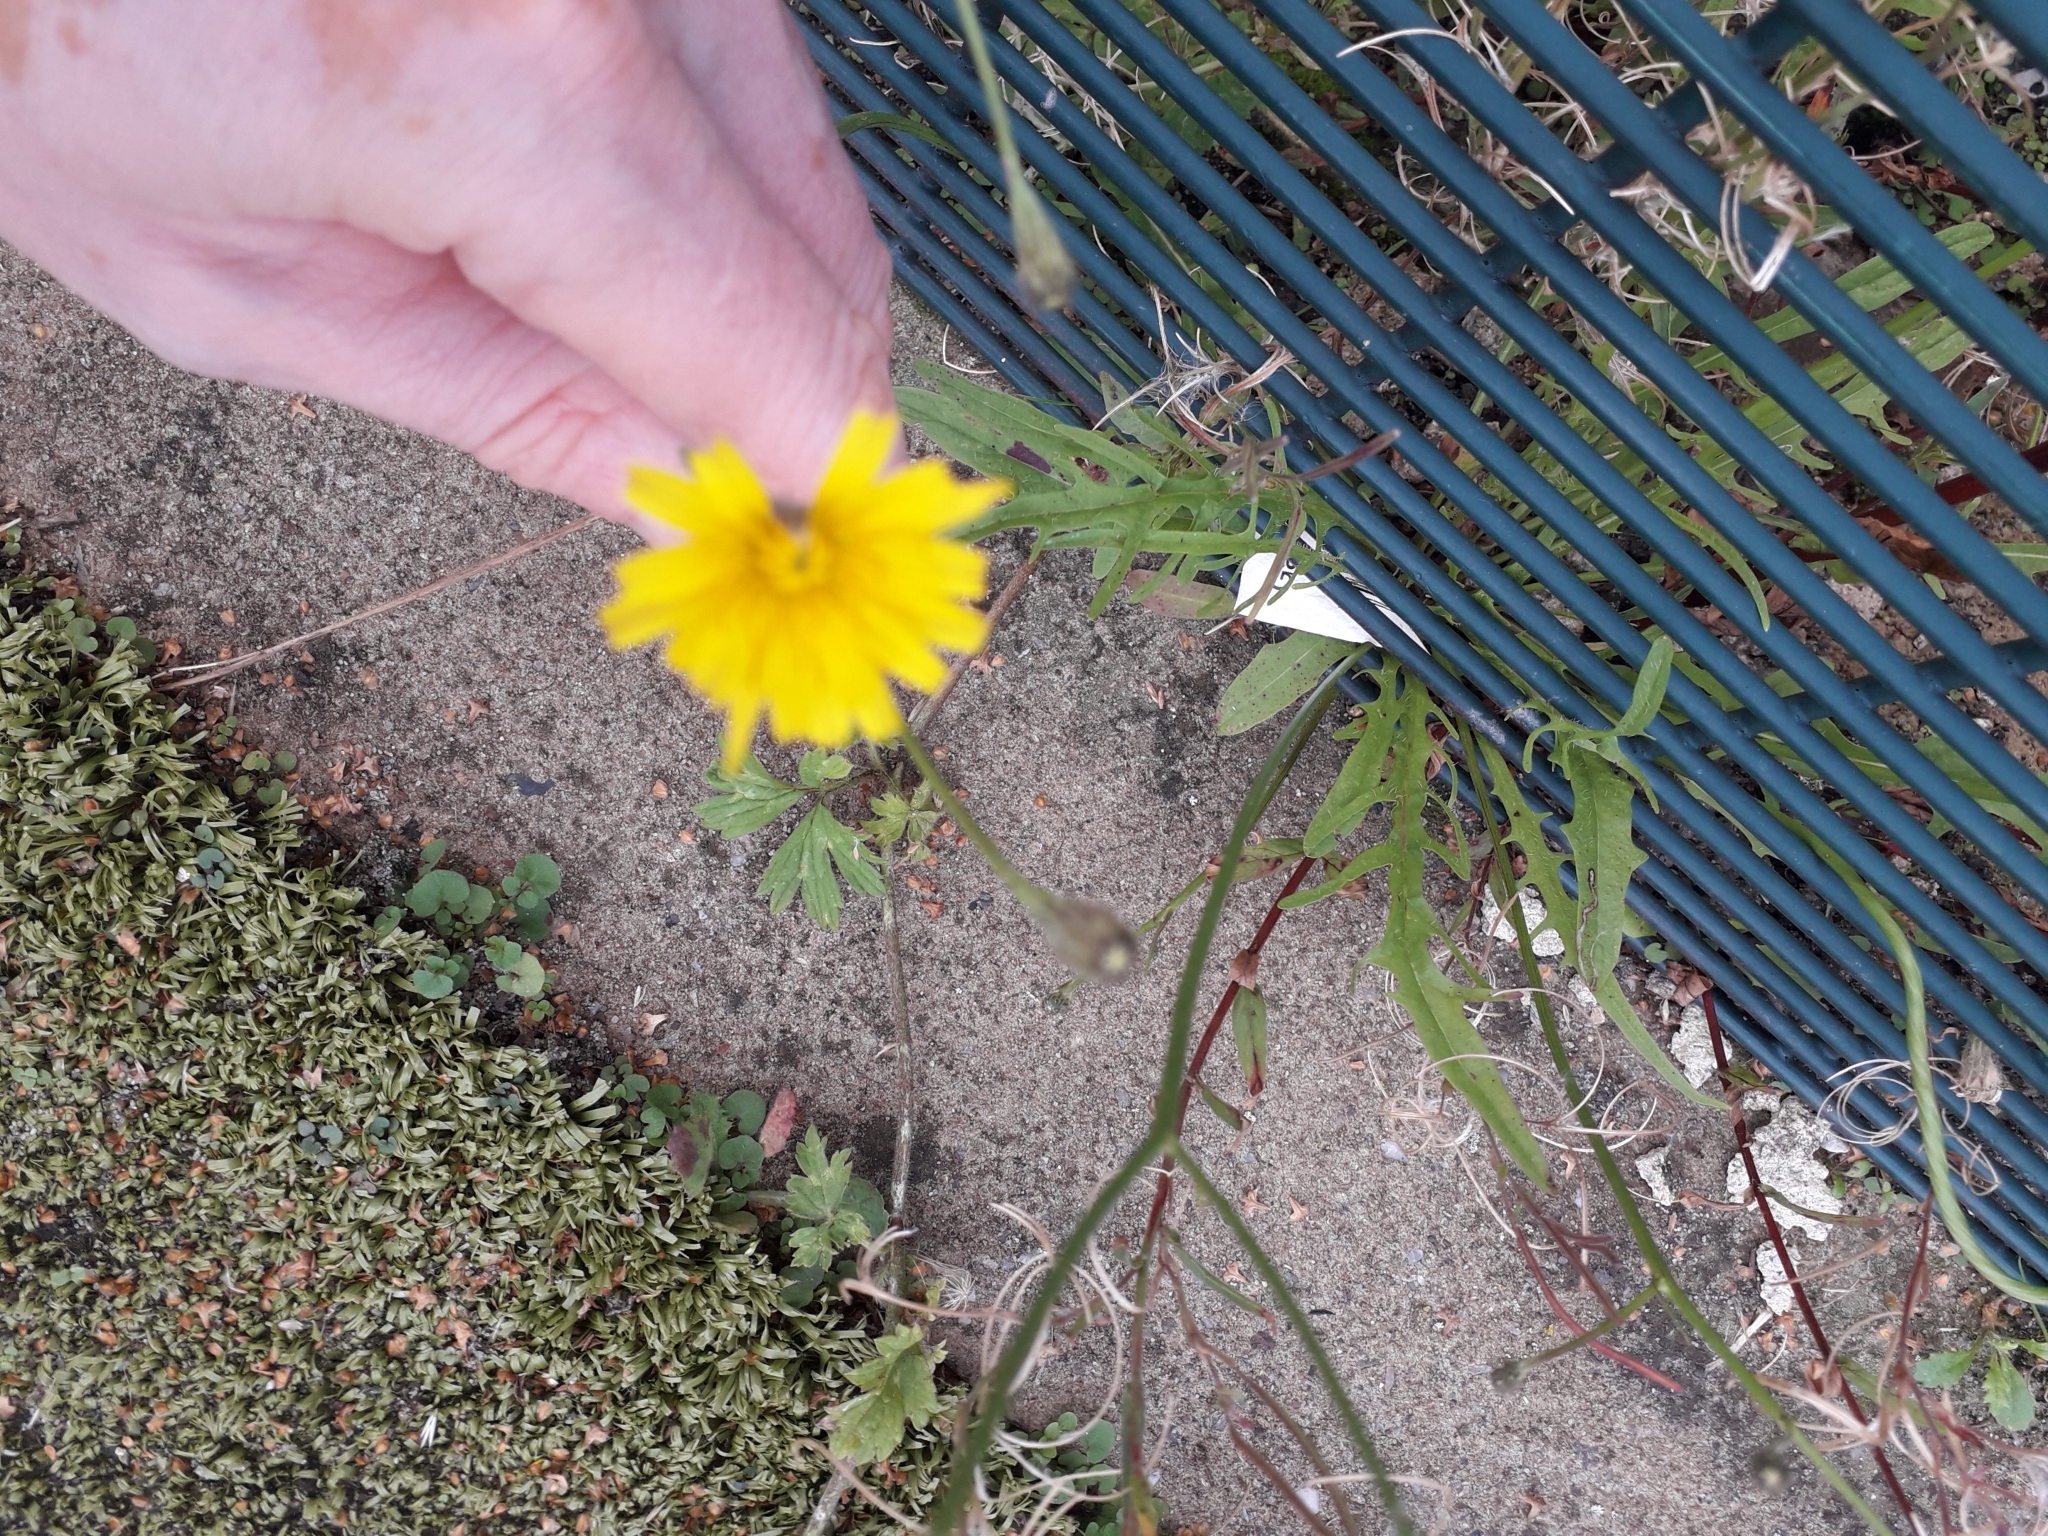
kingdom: Plantae
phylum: Tracheophyta
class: Magnoliopsida
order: Asterales
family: Asteraceae
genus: Scorzoneroides
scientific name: Scorzoneroides autumnalis
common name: Autumn hawkbit
